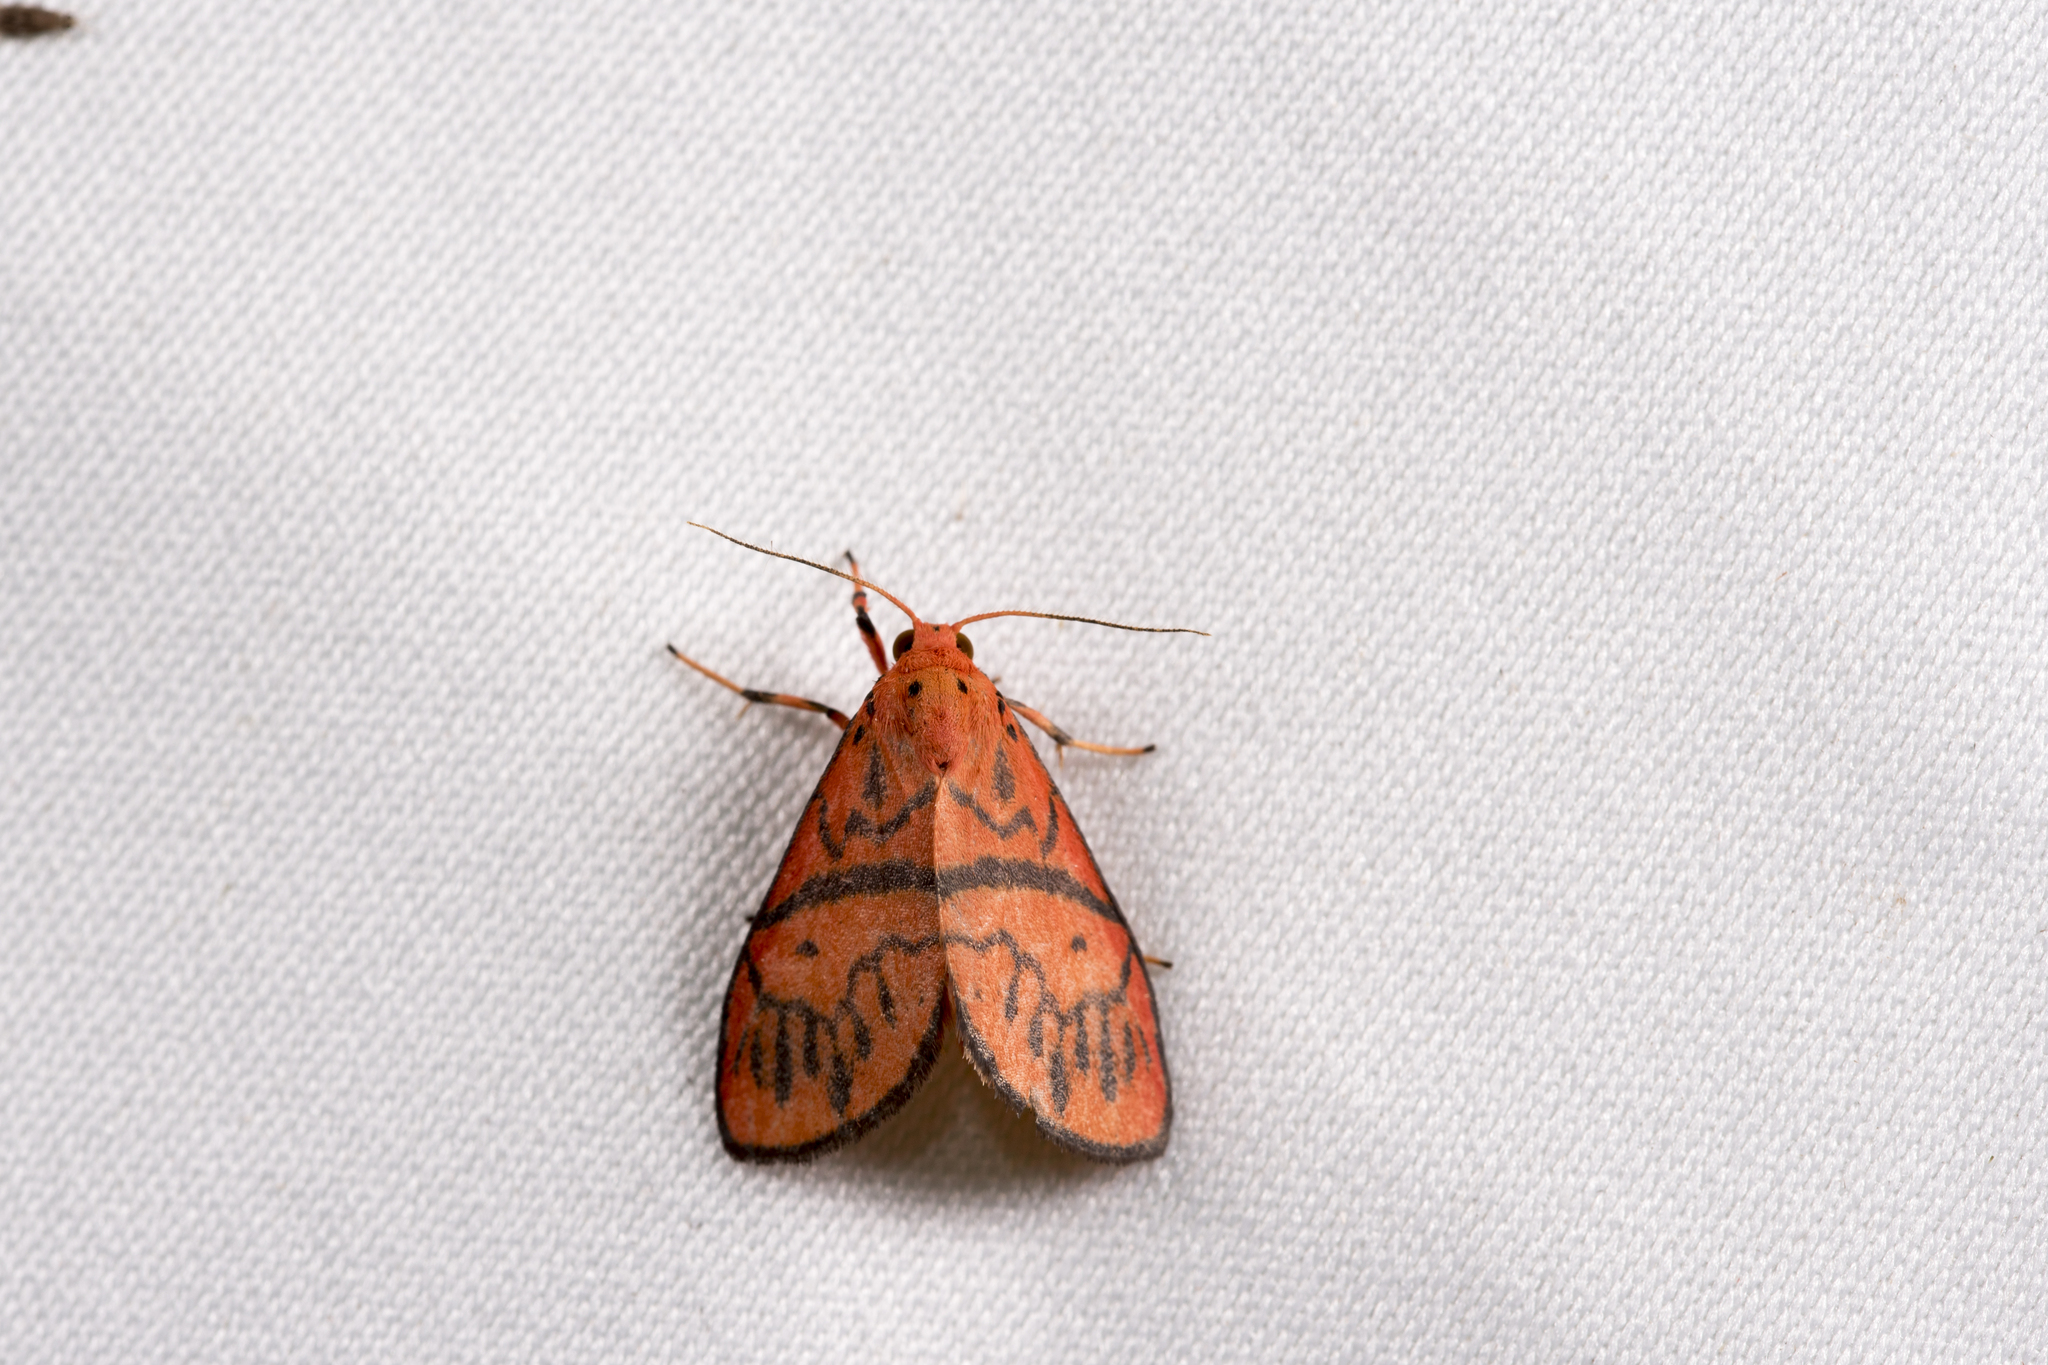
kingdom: Animalia
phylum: Arthropoda
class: Insecta
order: Lepidoptera
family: Erebidae
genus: Delineatia
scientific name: Delineatia tairadiata
